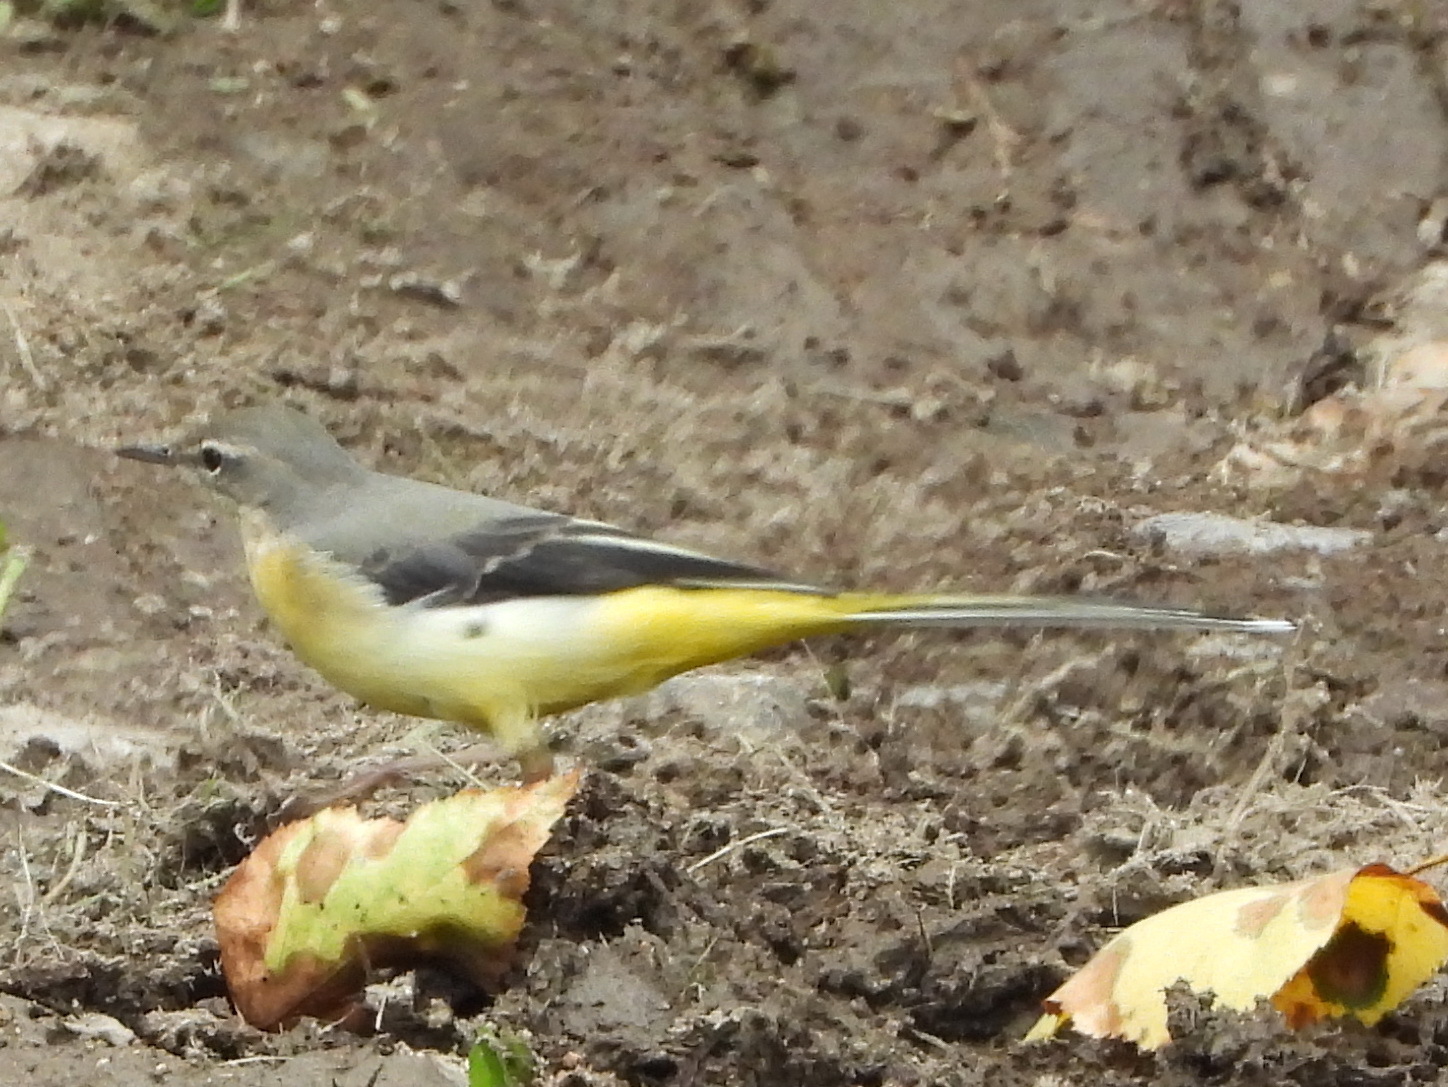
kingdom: Animalia
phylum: Chordata
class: Aves
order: Passeriformes
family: Motacillidae
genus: Motacilla
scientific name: Motacilla cinerea
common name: Grey wagtail
